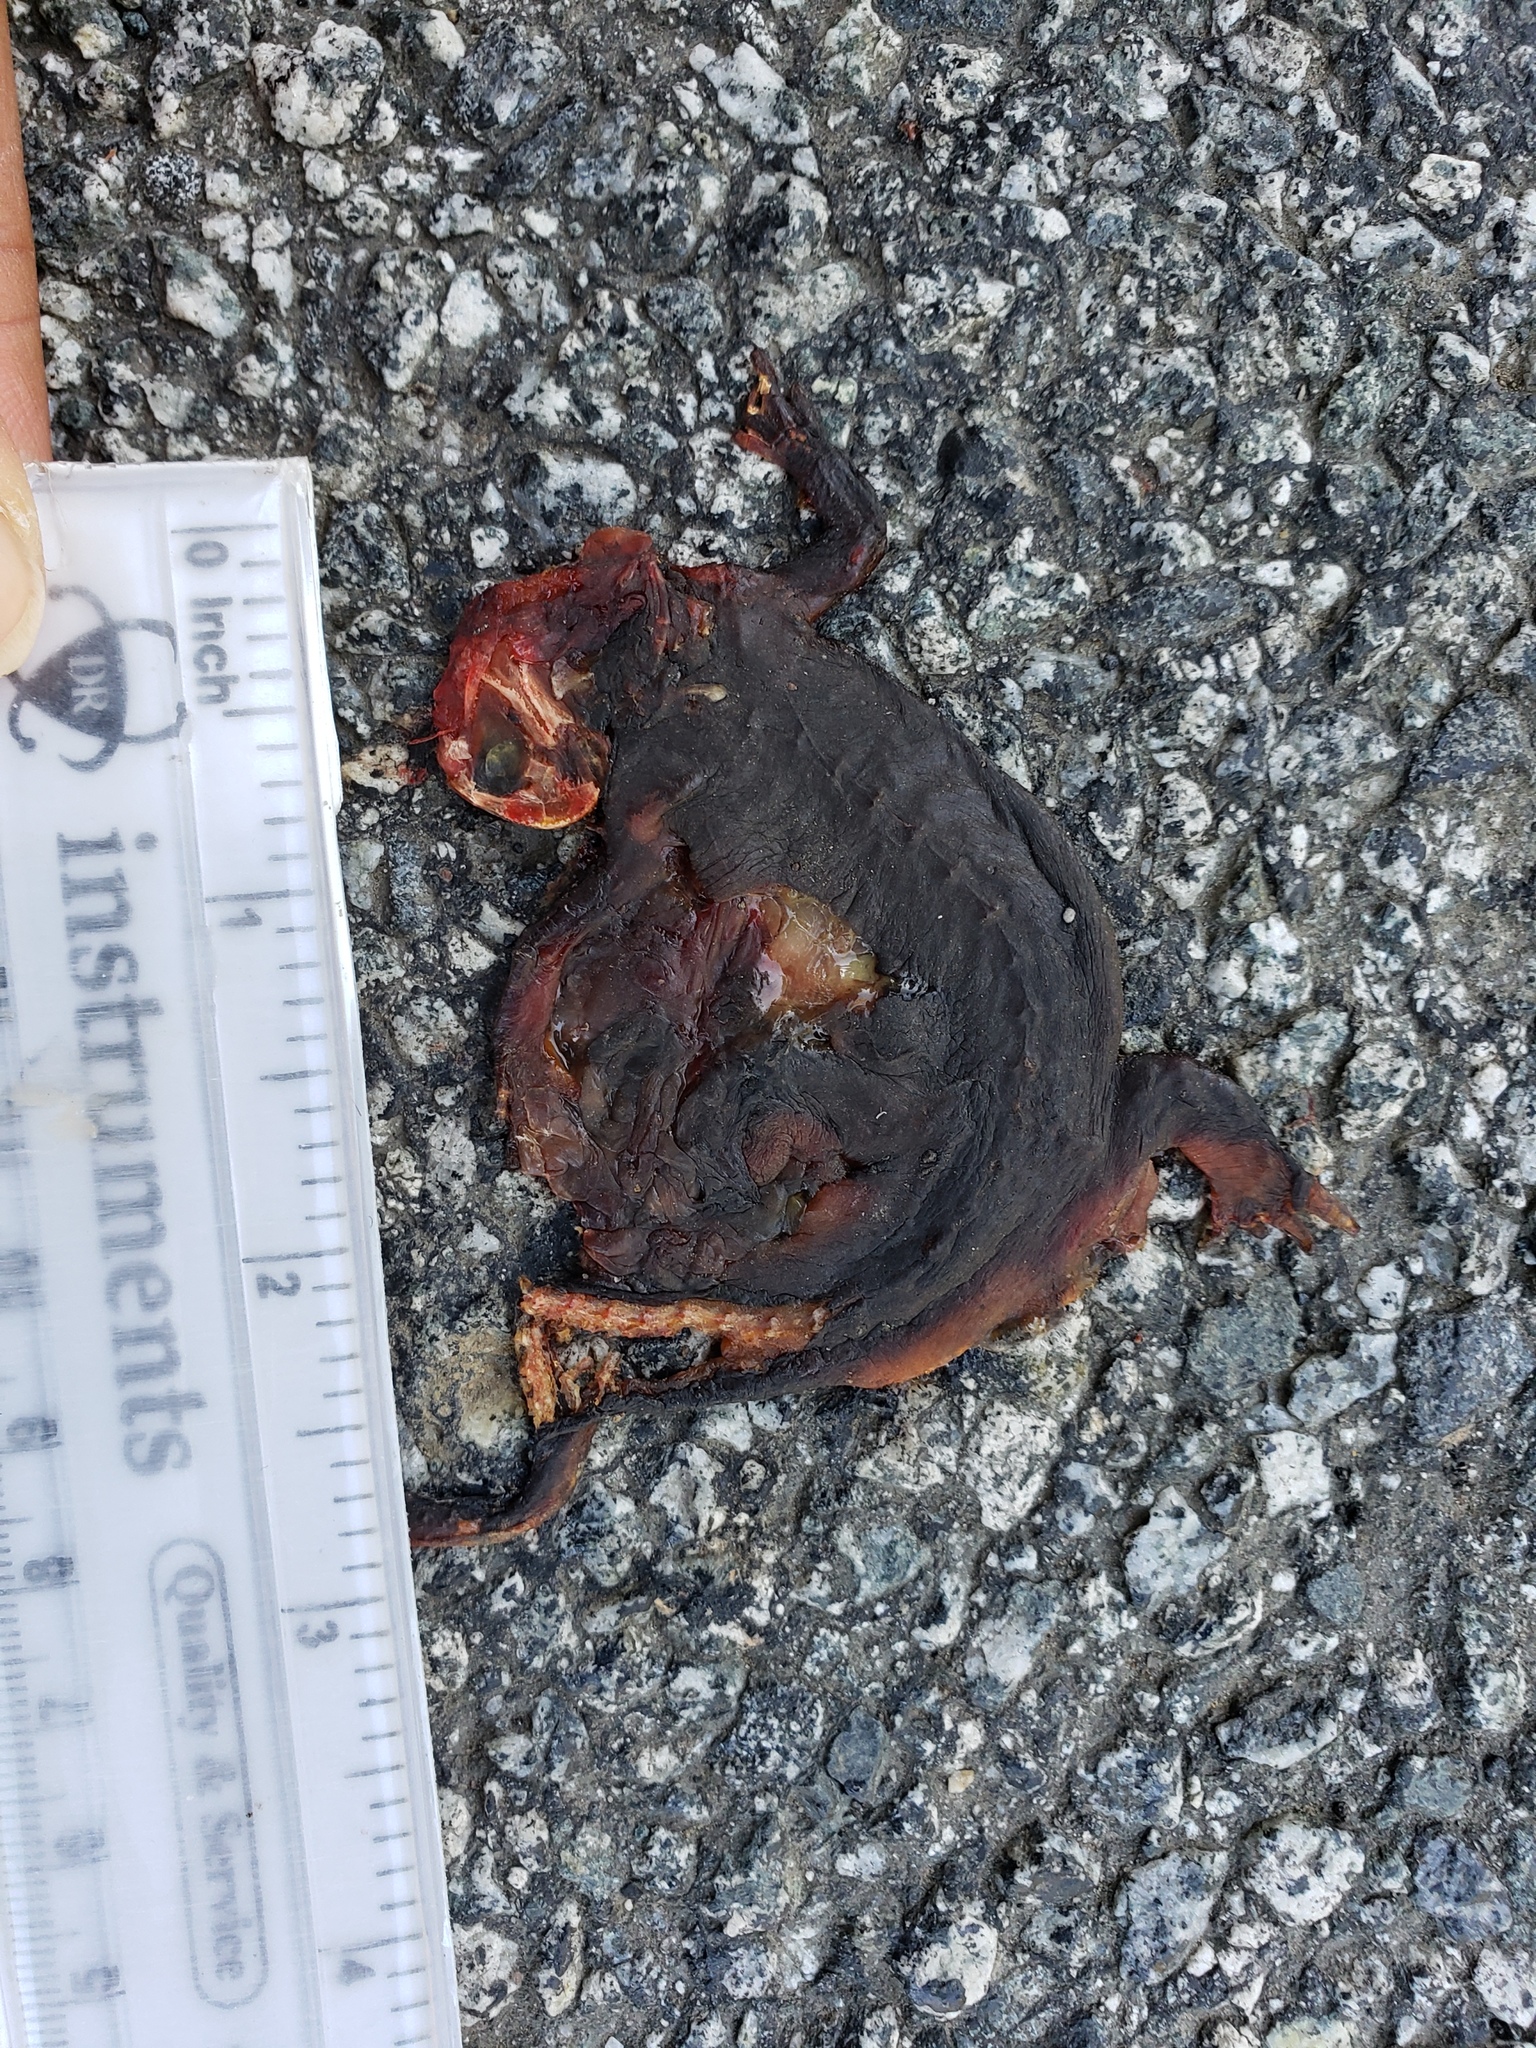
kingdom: Animalia
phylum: Chordata
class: Amphibia
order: Caudata
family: Salamandridae
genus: Taricha
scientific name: Taricha
